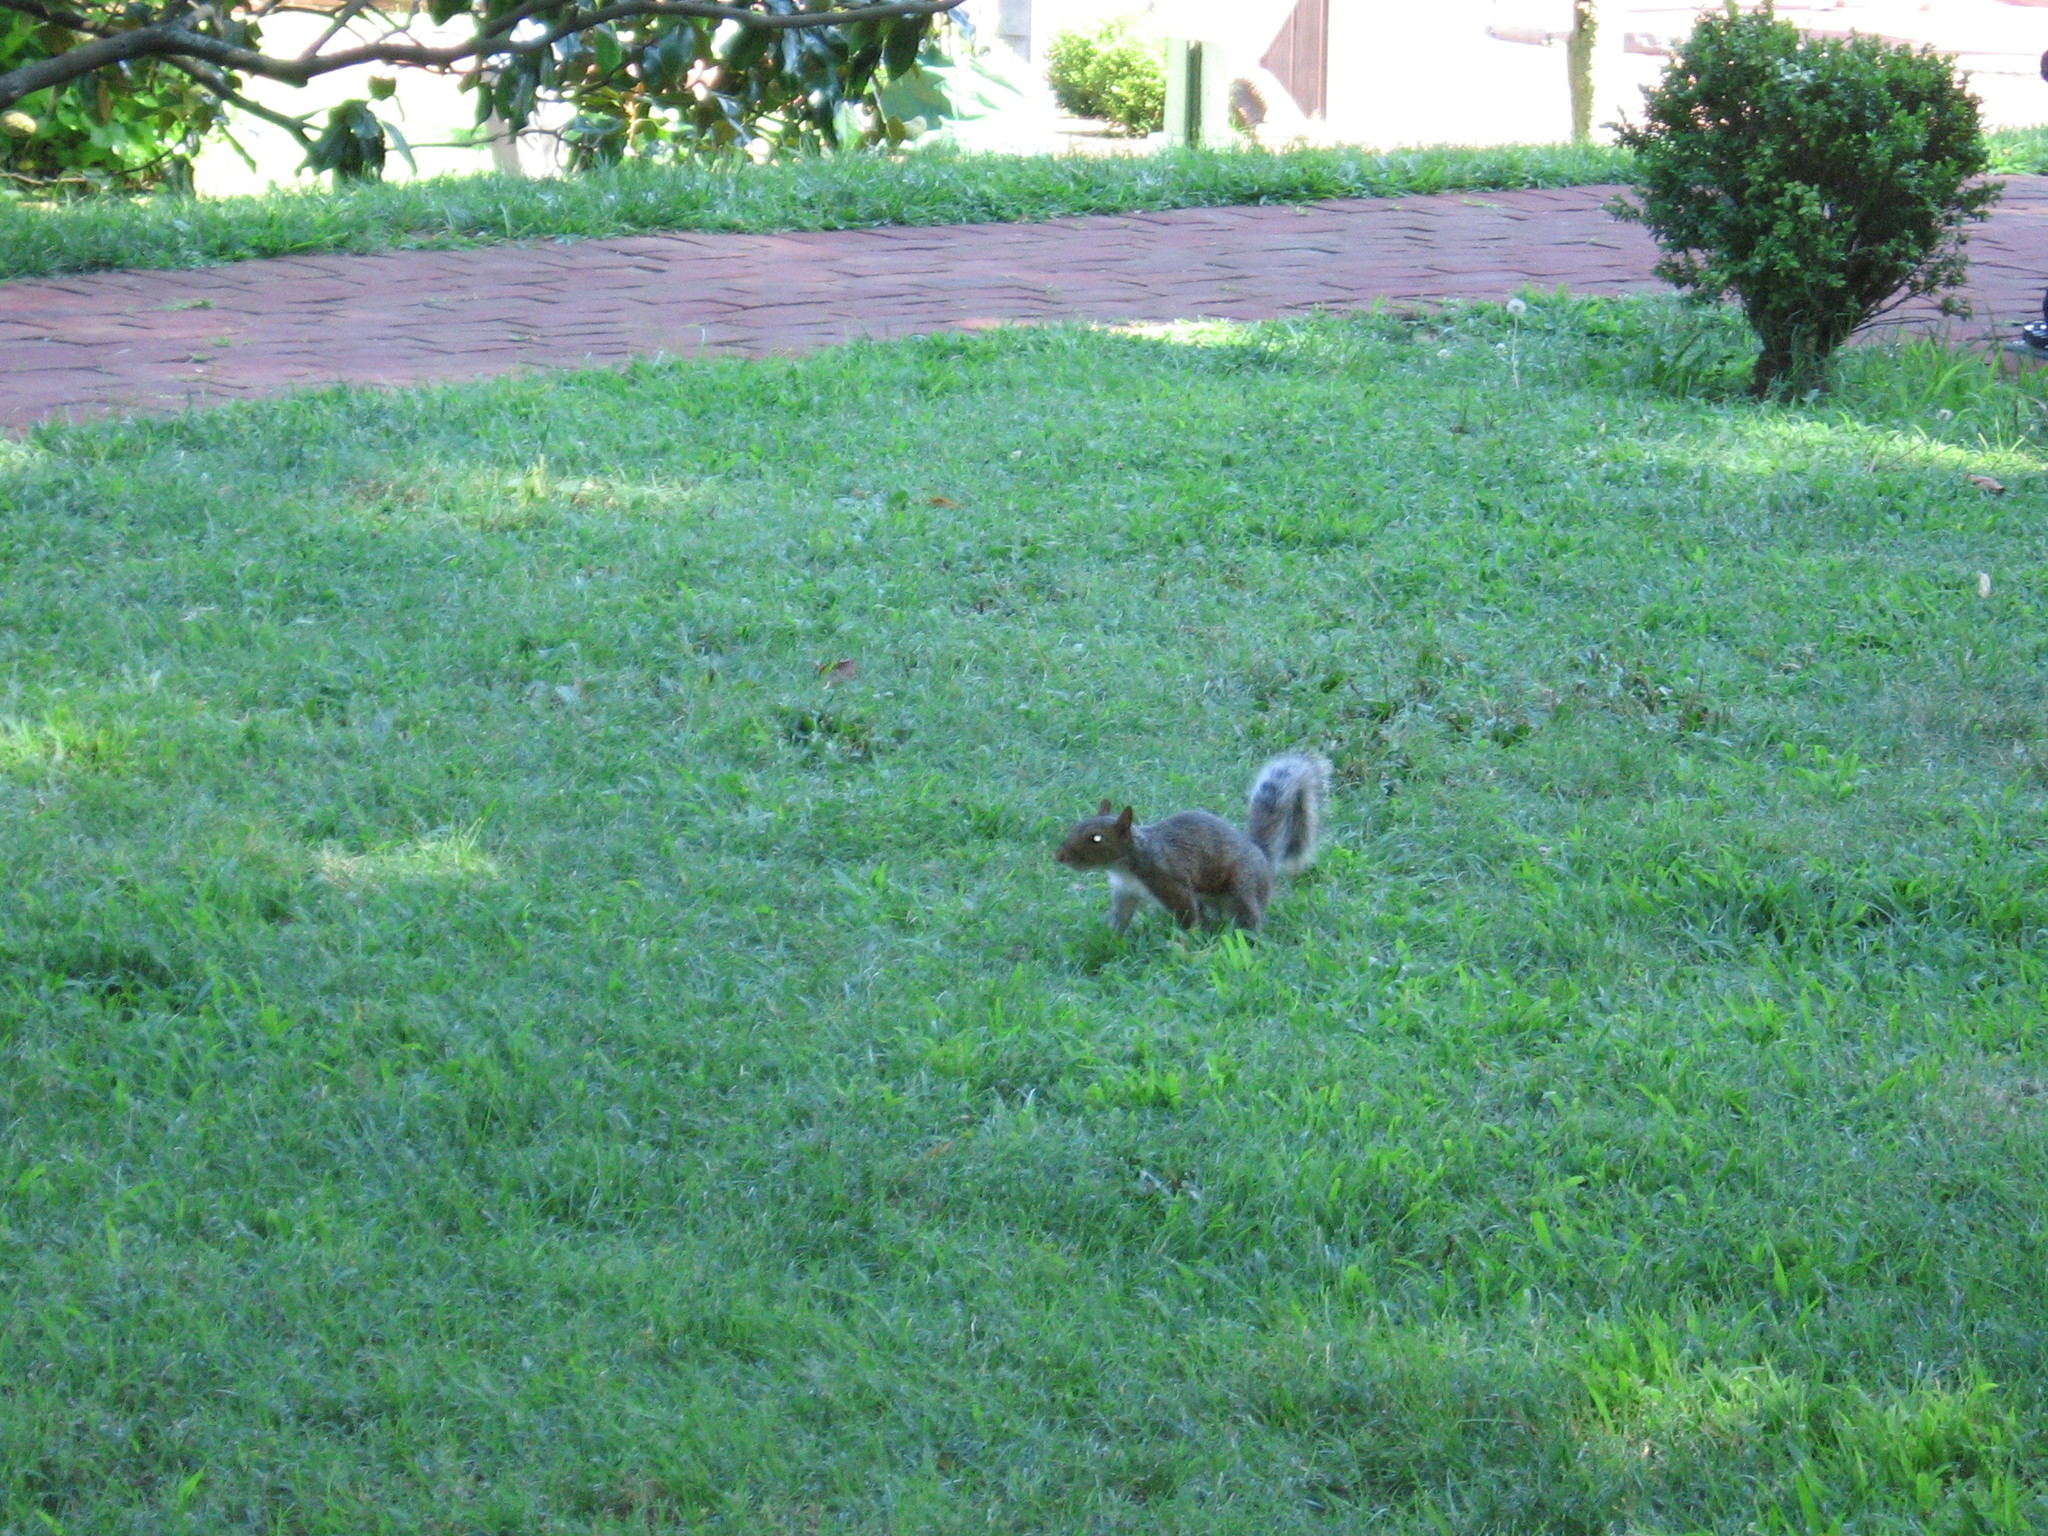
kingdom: Animalia
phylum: Chordata
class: Mammalia
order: Rodentia
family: Sciuridae
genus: Sciurus
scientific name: Sciurus carolinensis
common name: Eastern gray squirrel
